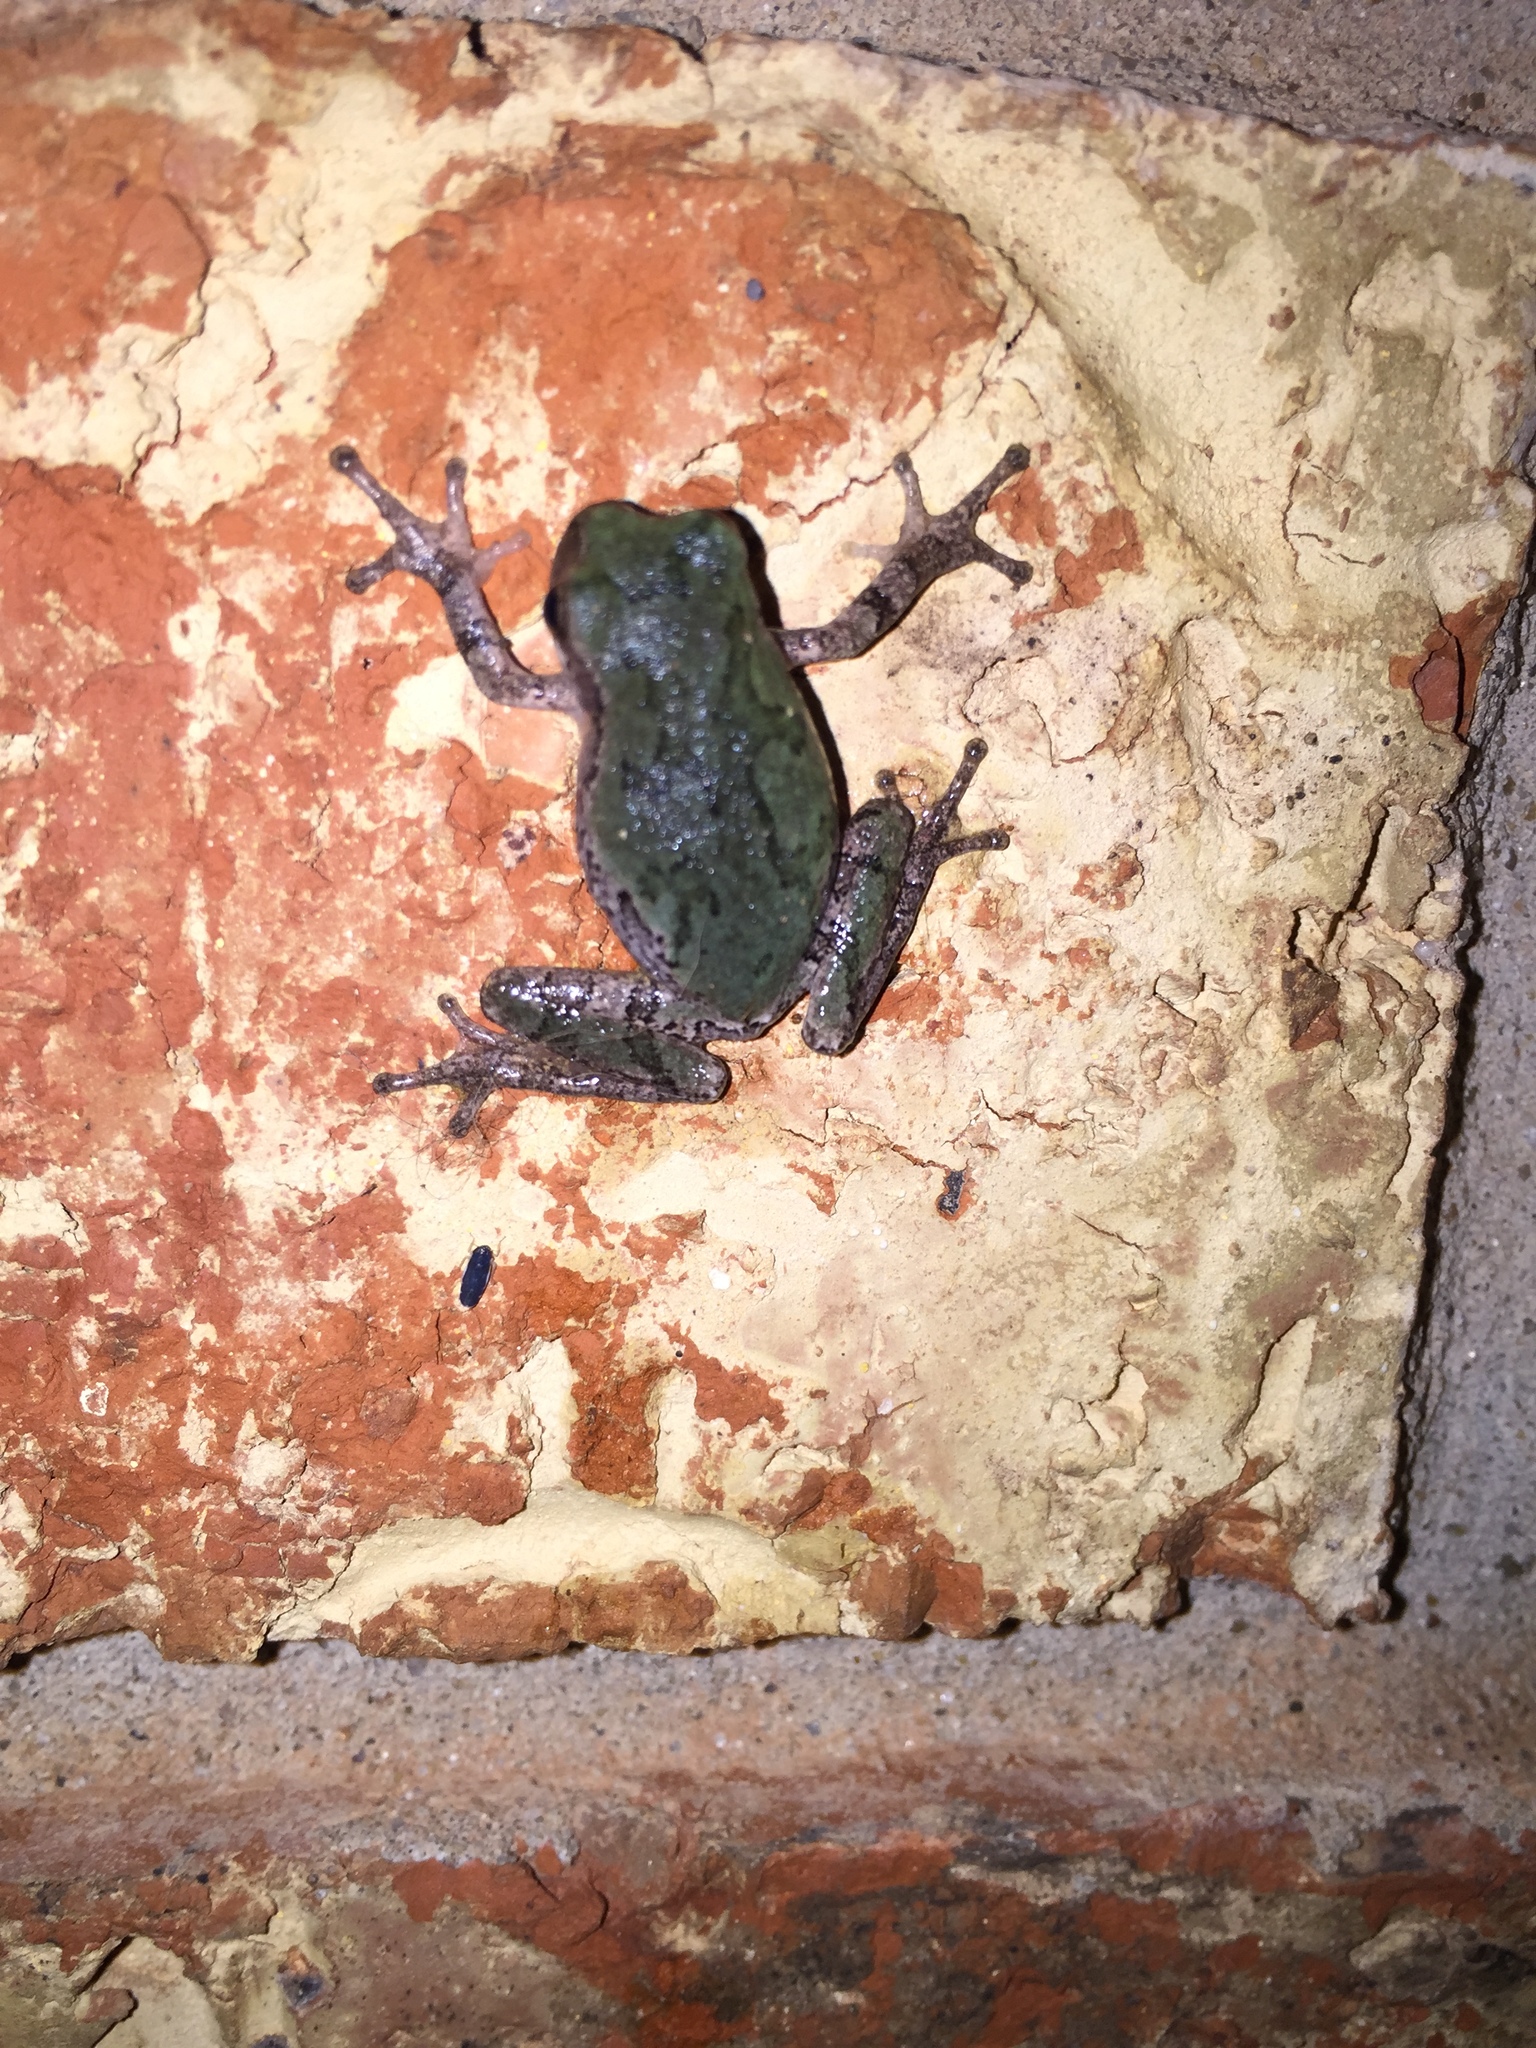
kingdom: Animalia
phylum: Chordata
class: Amphibia
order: Anura
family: Hylidae
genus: Hyla
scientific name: Hyla
